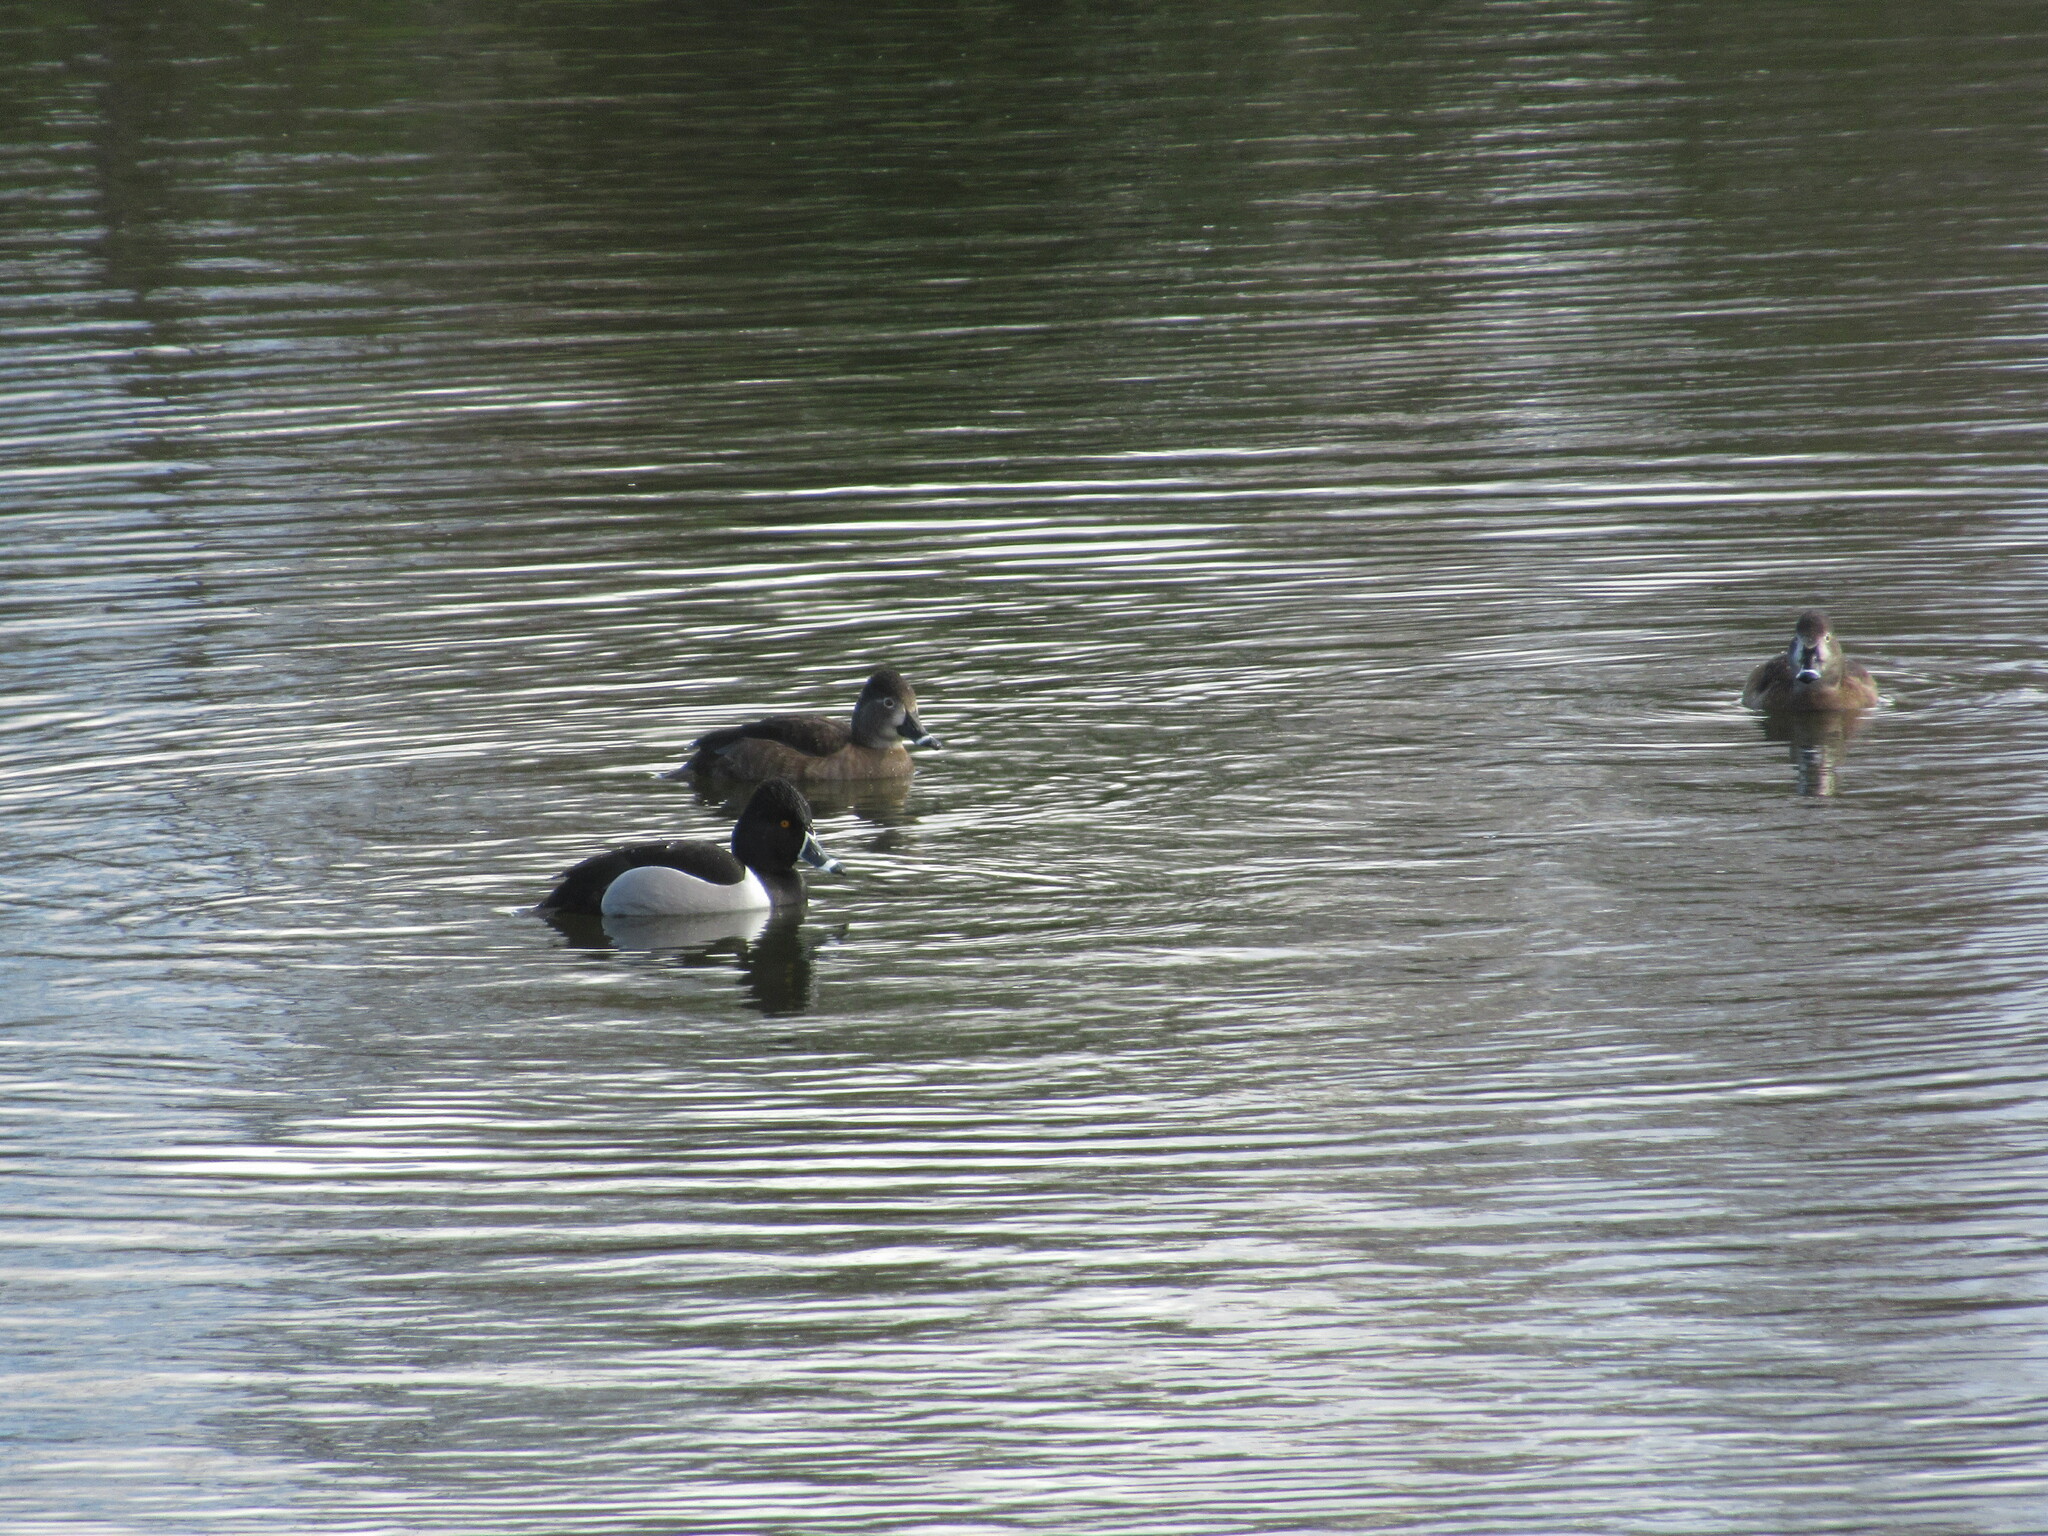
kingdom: Animalia
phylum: Chordata
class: Aves
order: Anseriformes
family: Anatidae
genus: Aythya
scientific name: Aythya collaris
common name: Ring-necked duck
